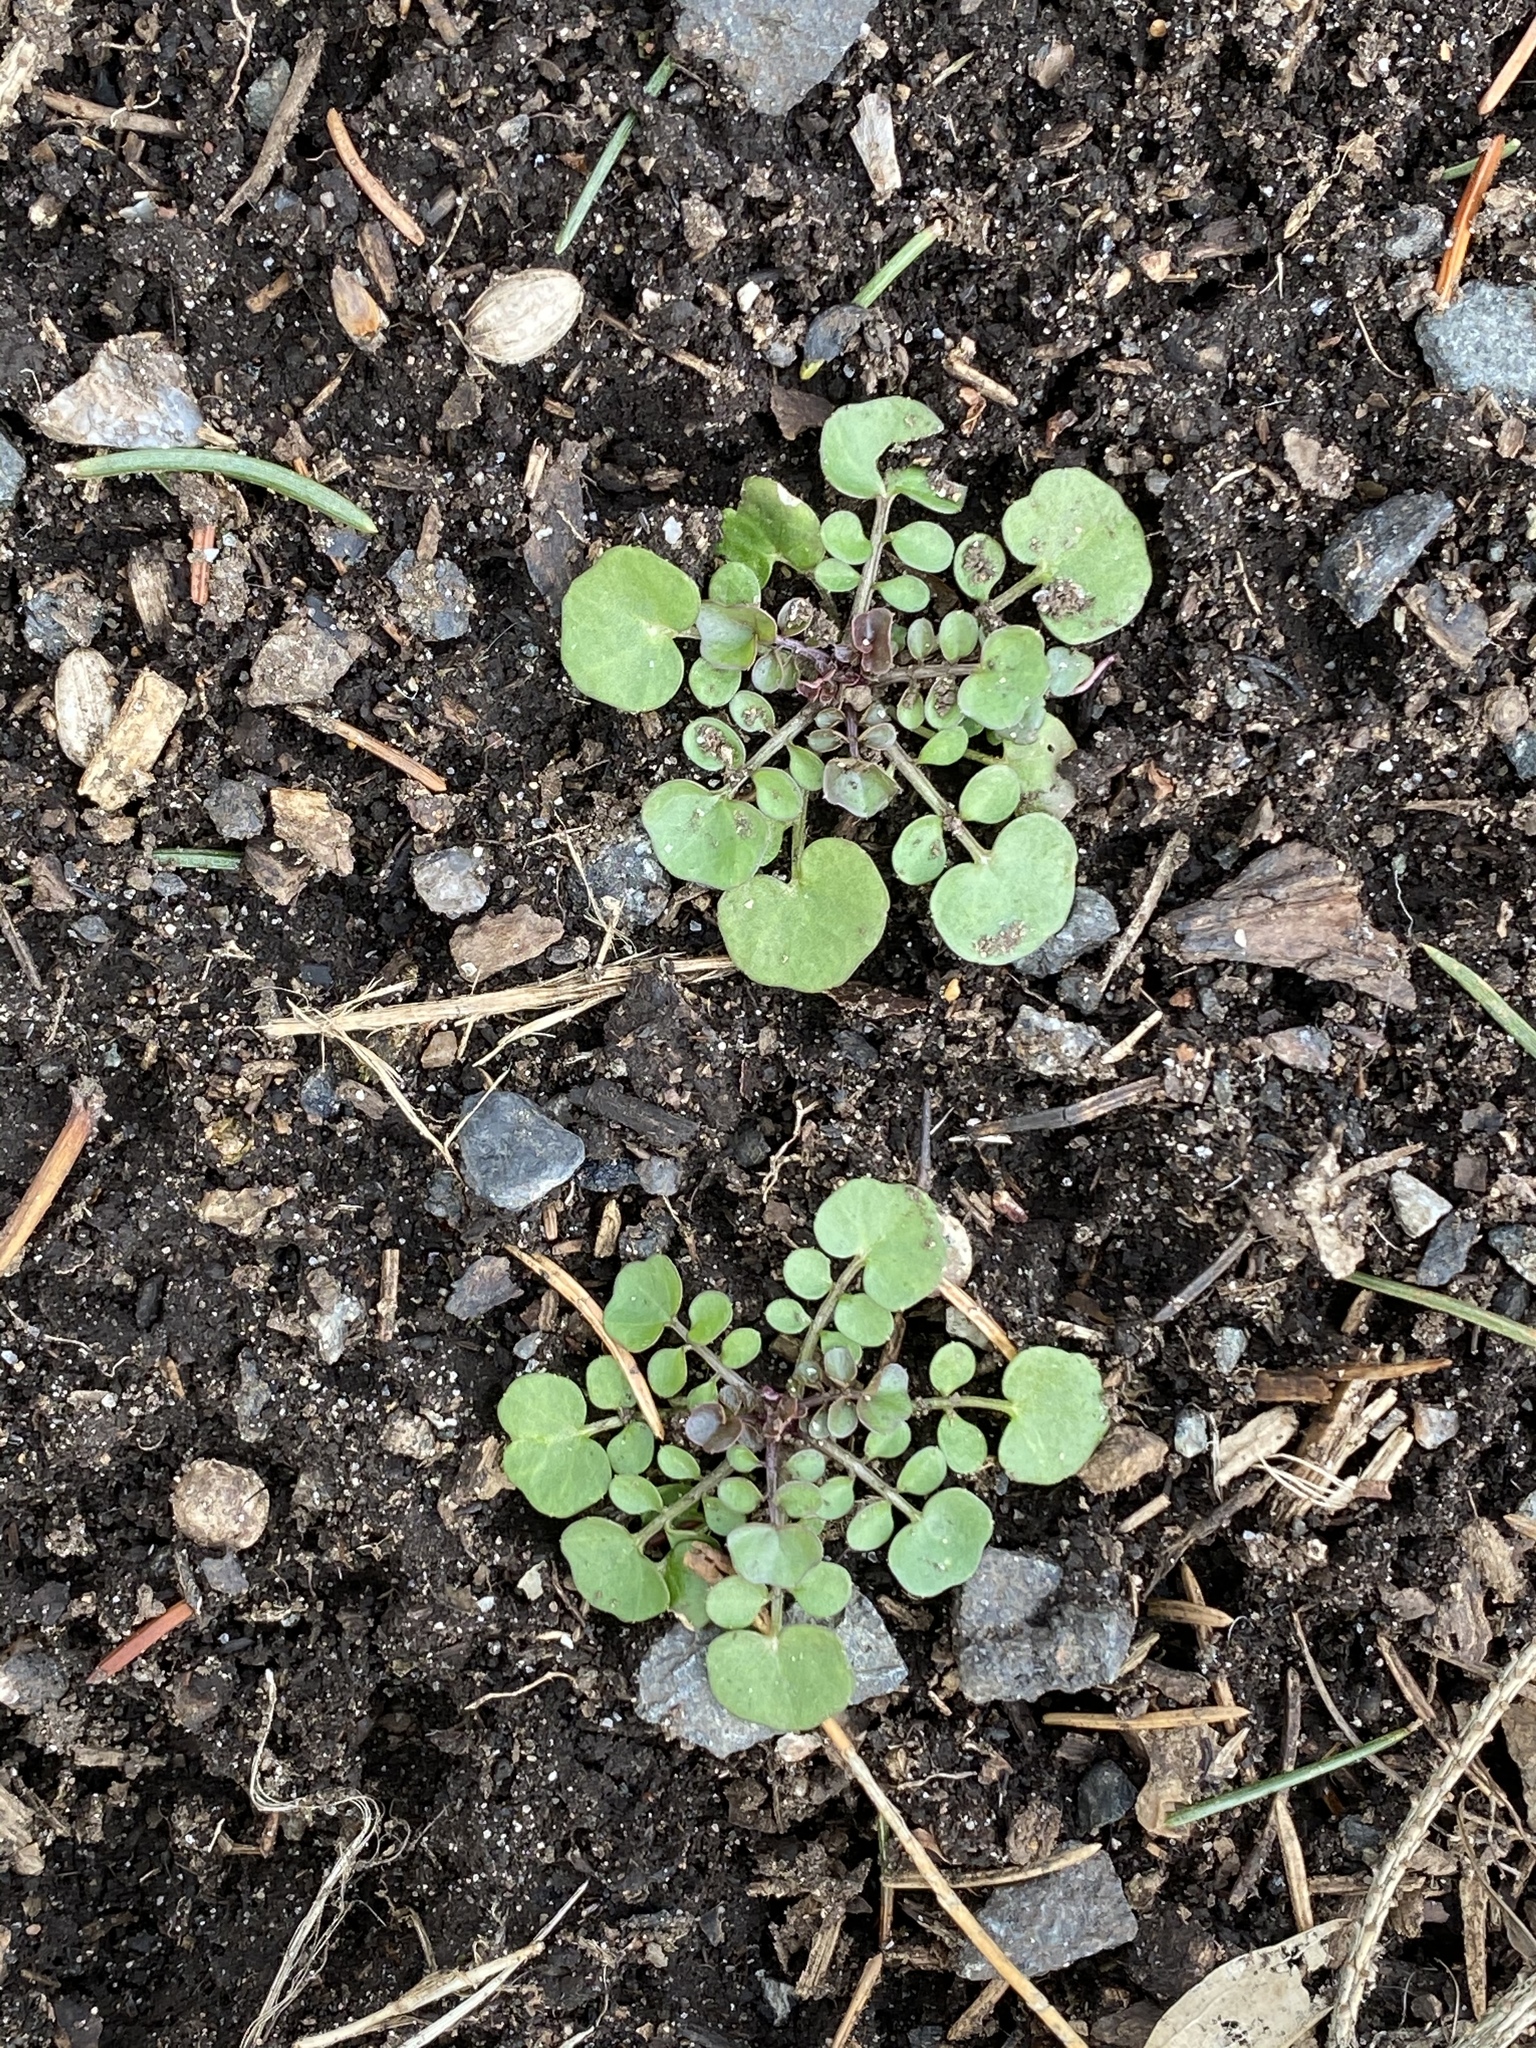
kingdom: Plantae
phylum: Tracheophyta
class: Magnoliopsida
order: Brassicales
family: Brassicaceae
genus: Cardamine
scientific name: Cardamine hirsuta
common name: Hairy bittercress
